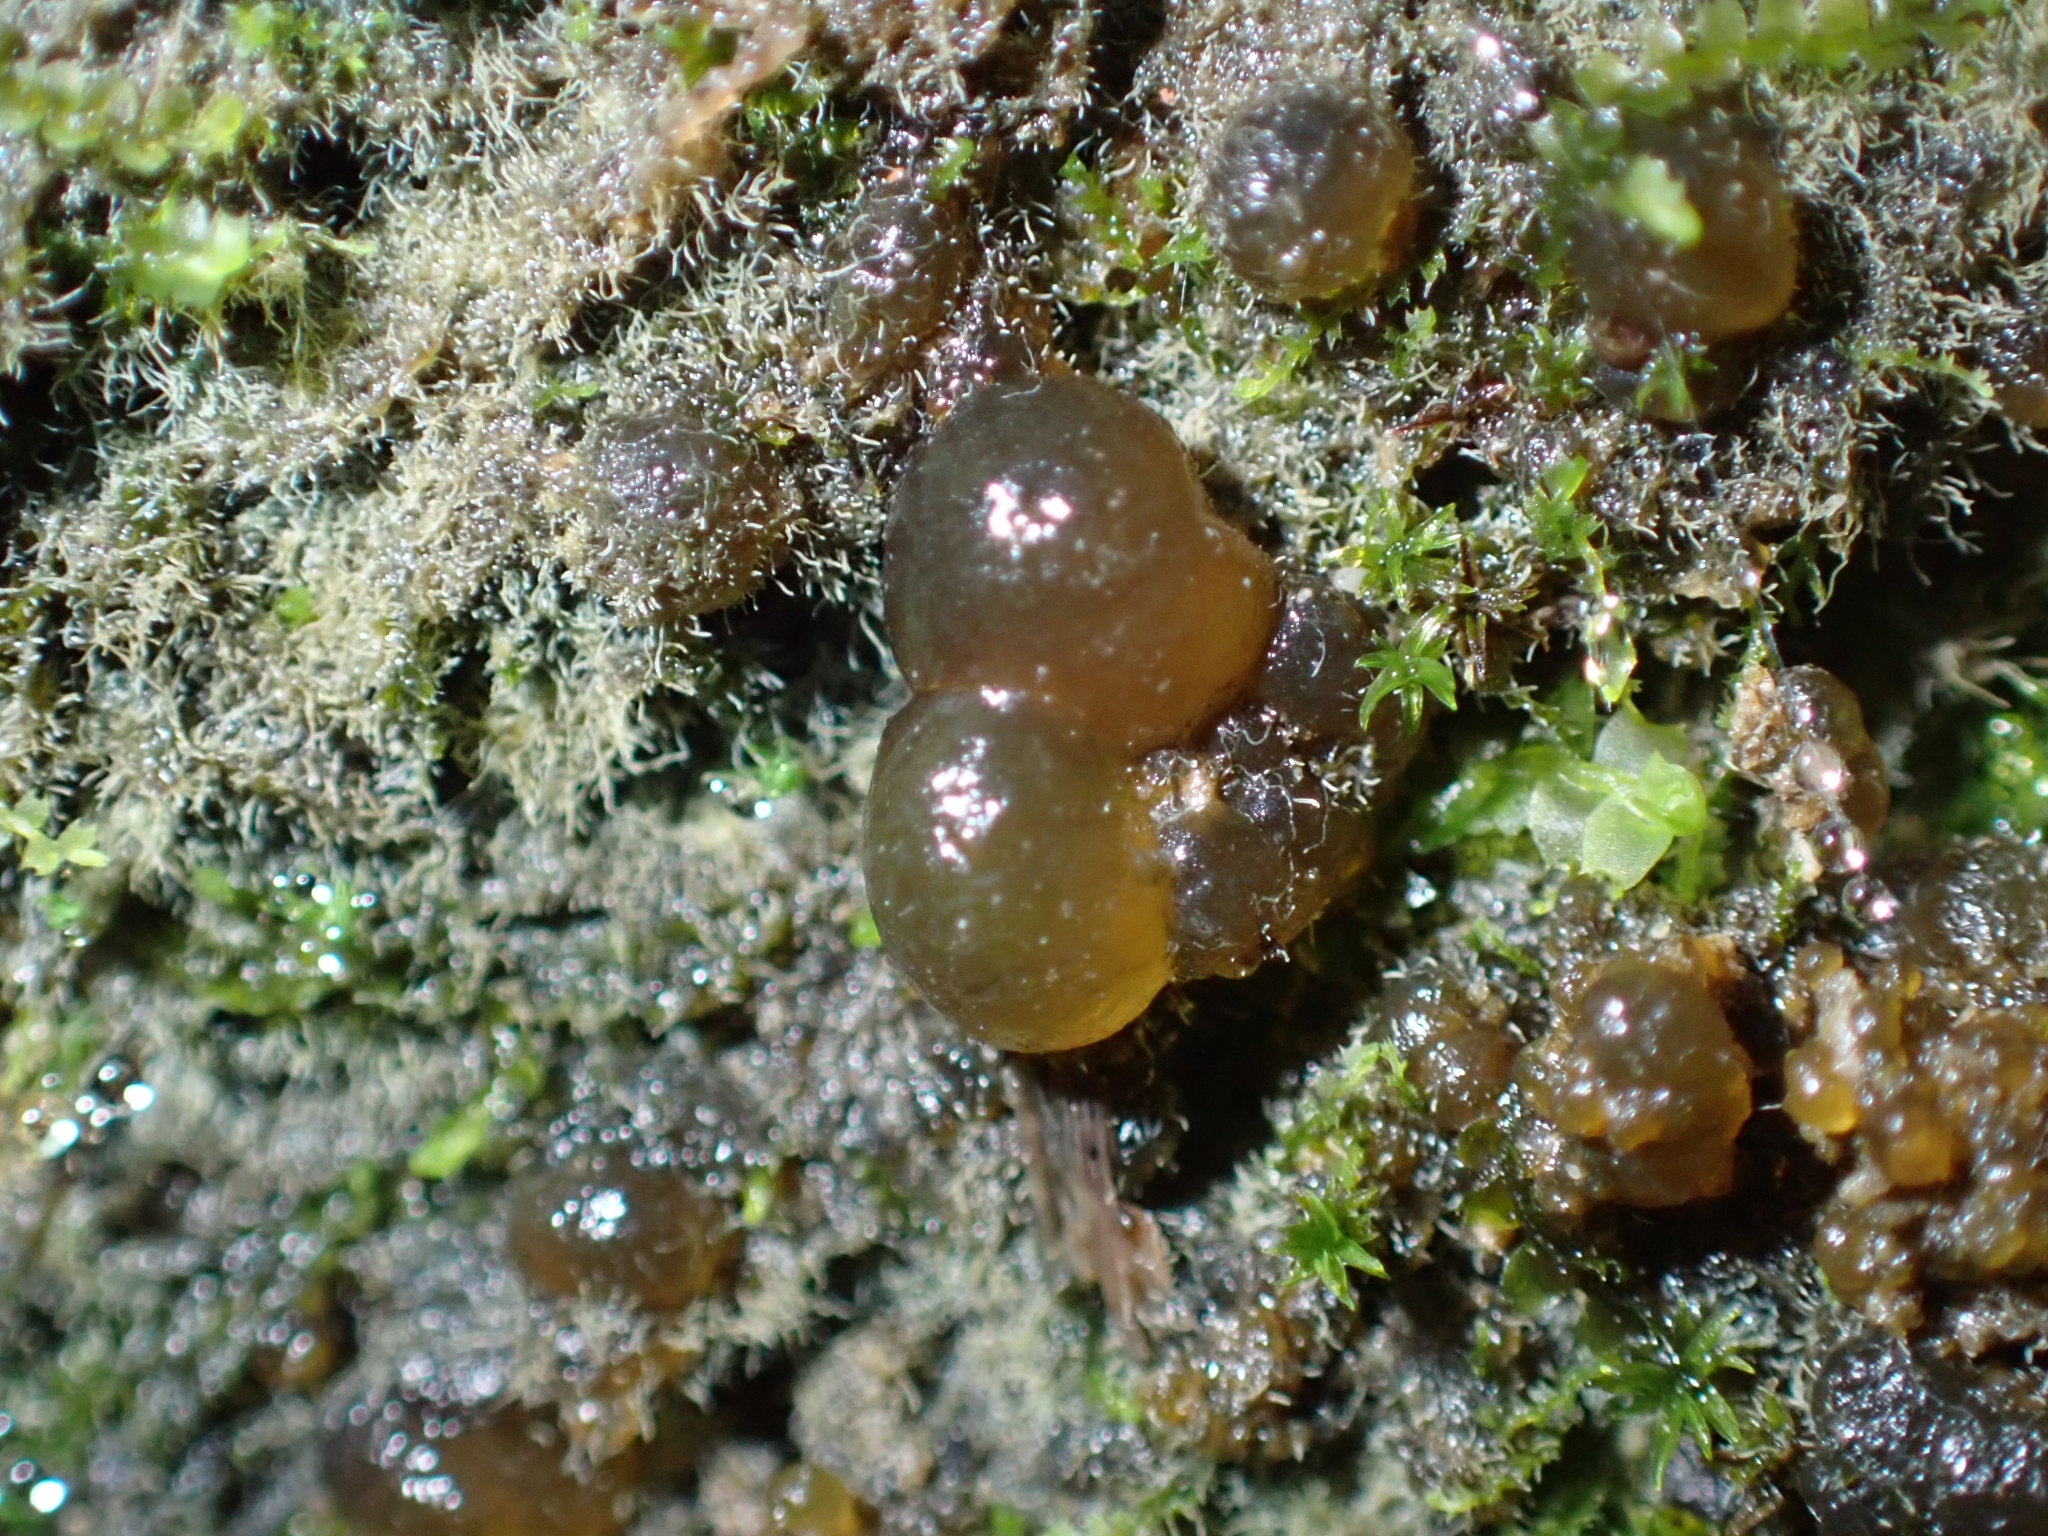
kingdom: Bacteria
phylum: Cyanobacteria
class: Cyanobacteriia
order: Cyanobacteriales
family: Nostocaceae
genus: Nostoc
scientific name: Nostoc commune
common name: Star jelly
